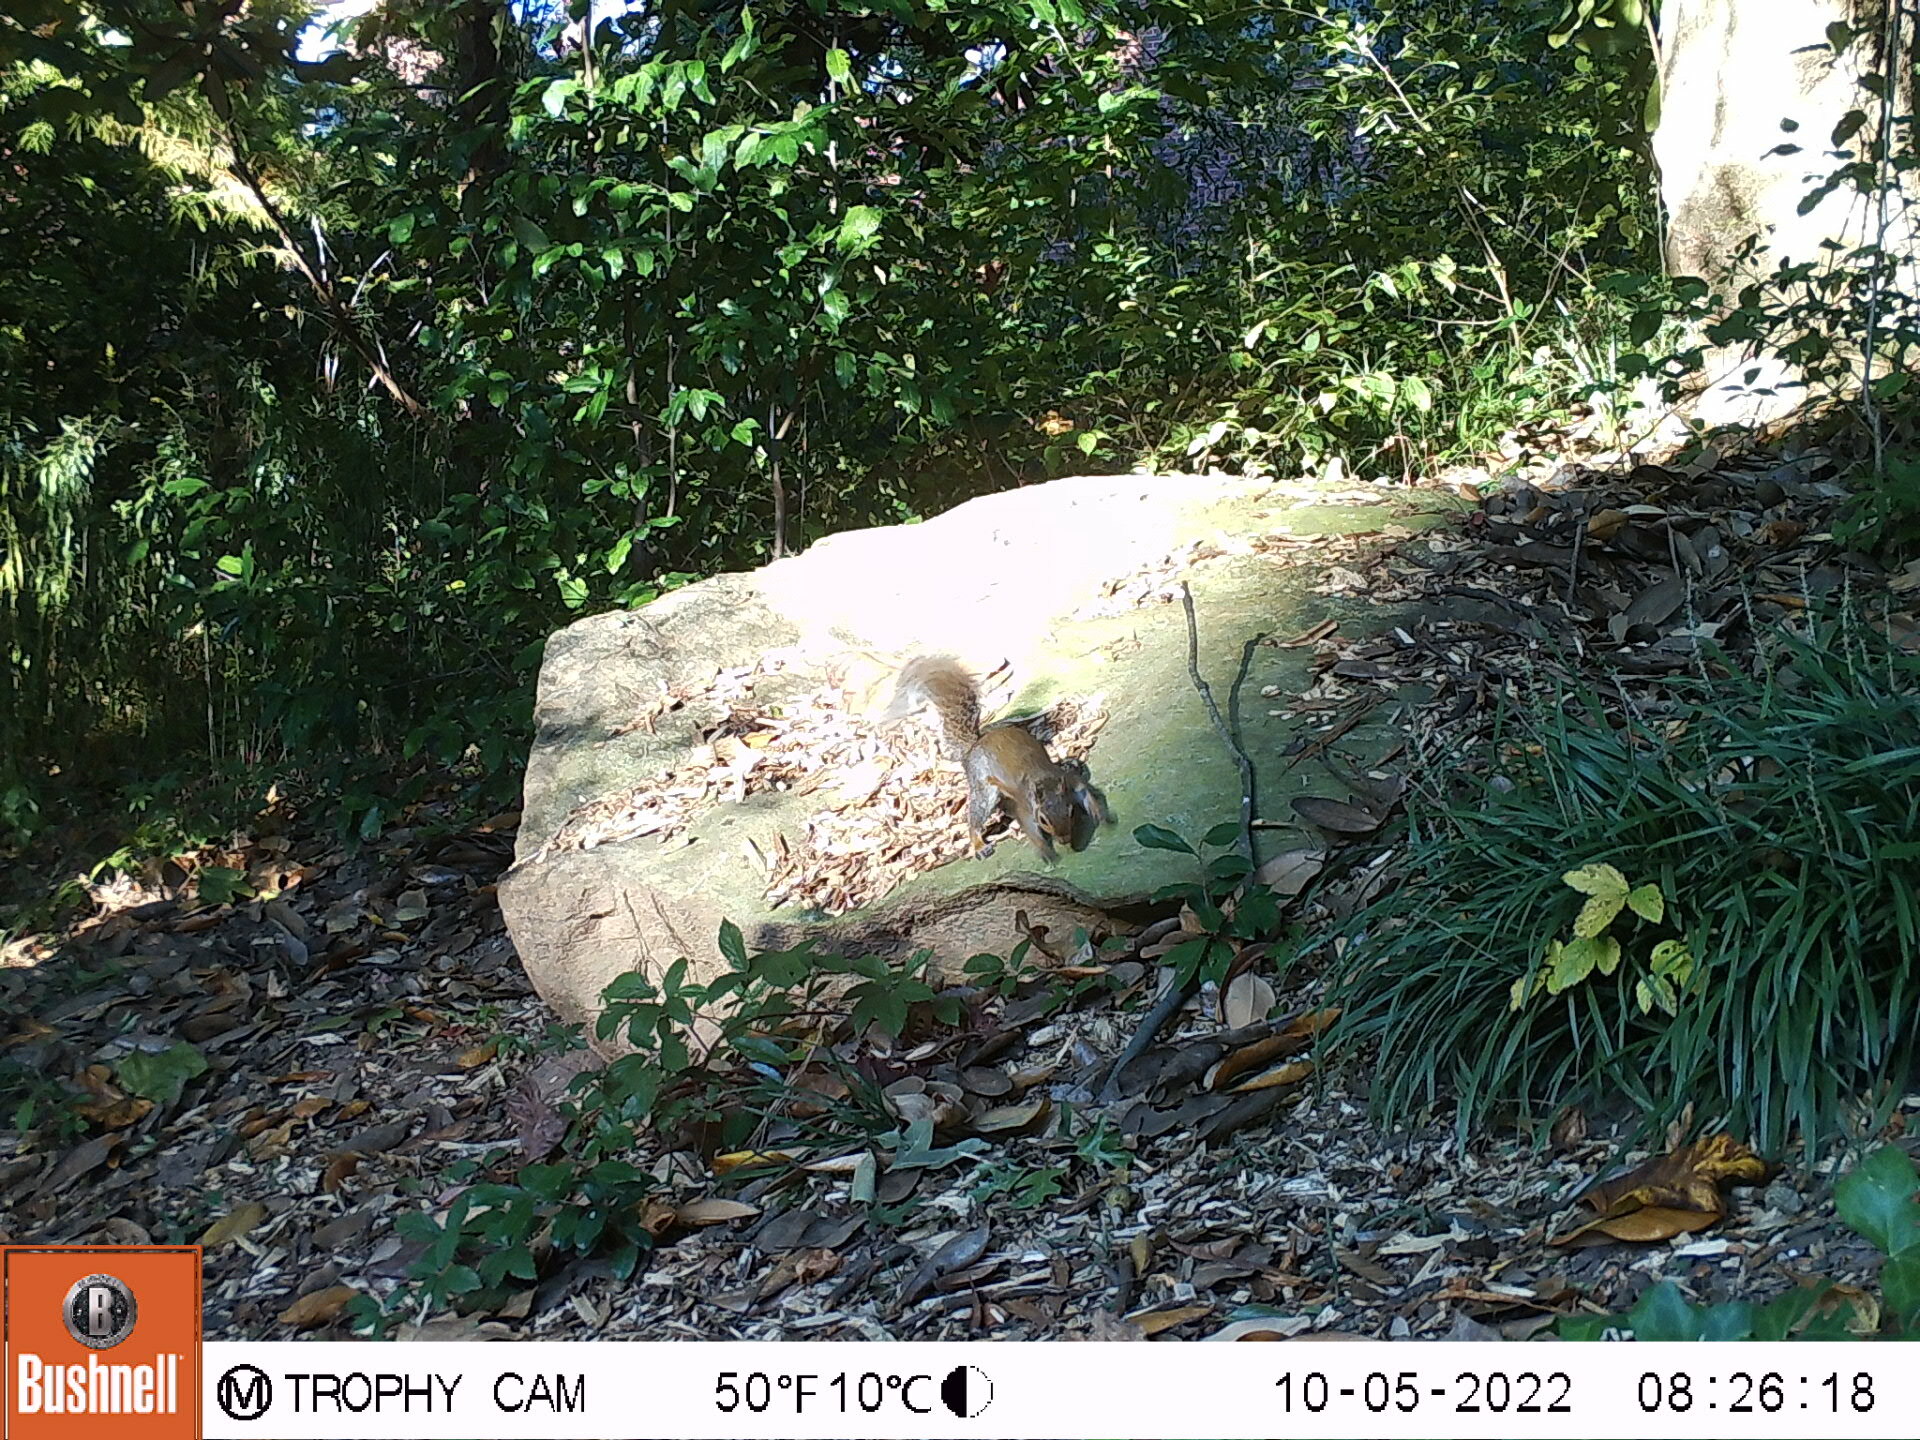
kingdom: Animalia
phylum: Chordata
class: Mammalia
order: Rodentia
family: Sciuridae
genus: Sciurus
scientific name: Sciurus carolinensis
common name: Eastern gray squirrel
